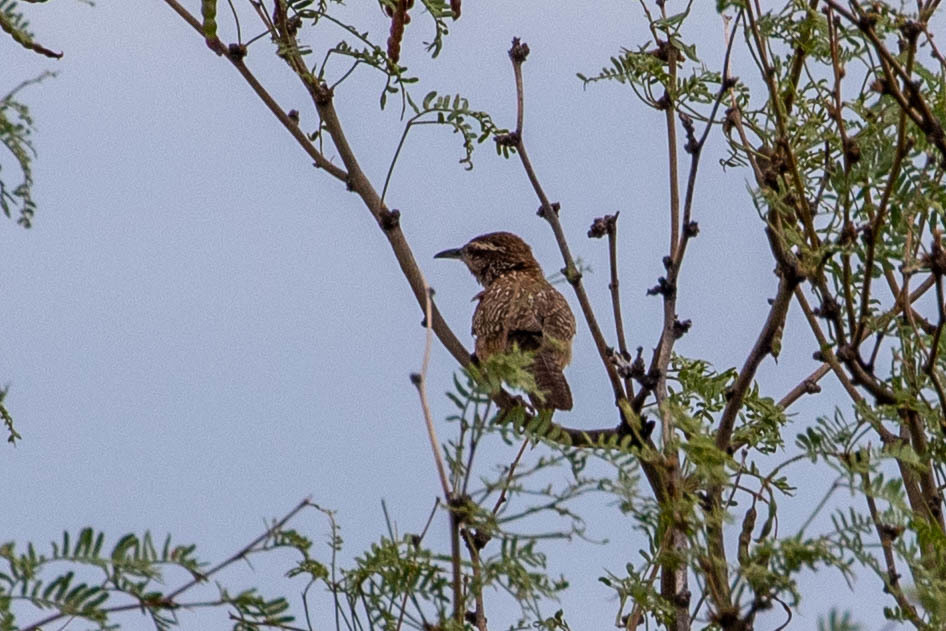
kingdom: Animalia
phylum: Chordata
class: Aves
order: Passeriformes
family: Troglodytidae
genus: Campylorhynchus
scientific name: Campylorhynchus brunneicapillus
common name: Cactus wren
